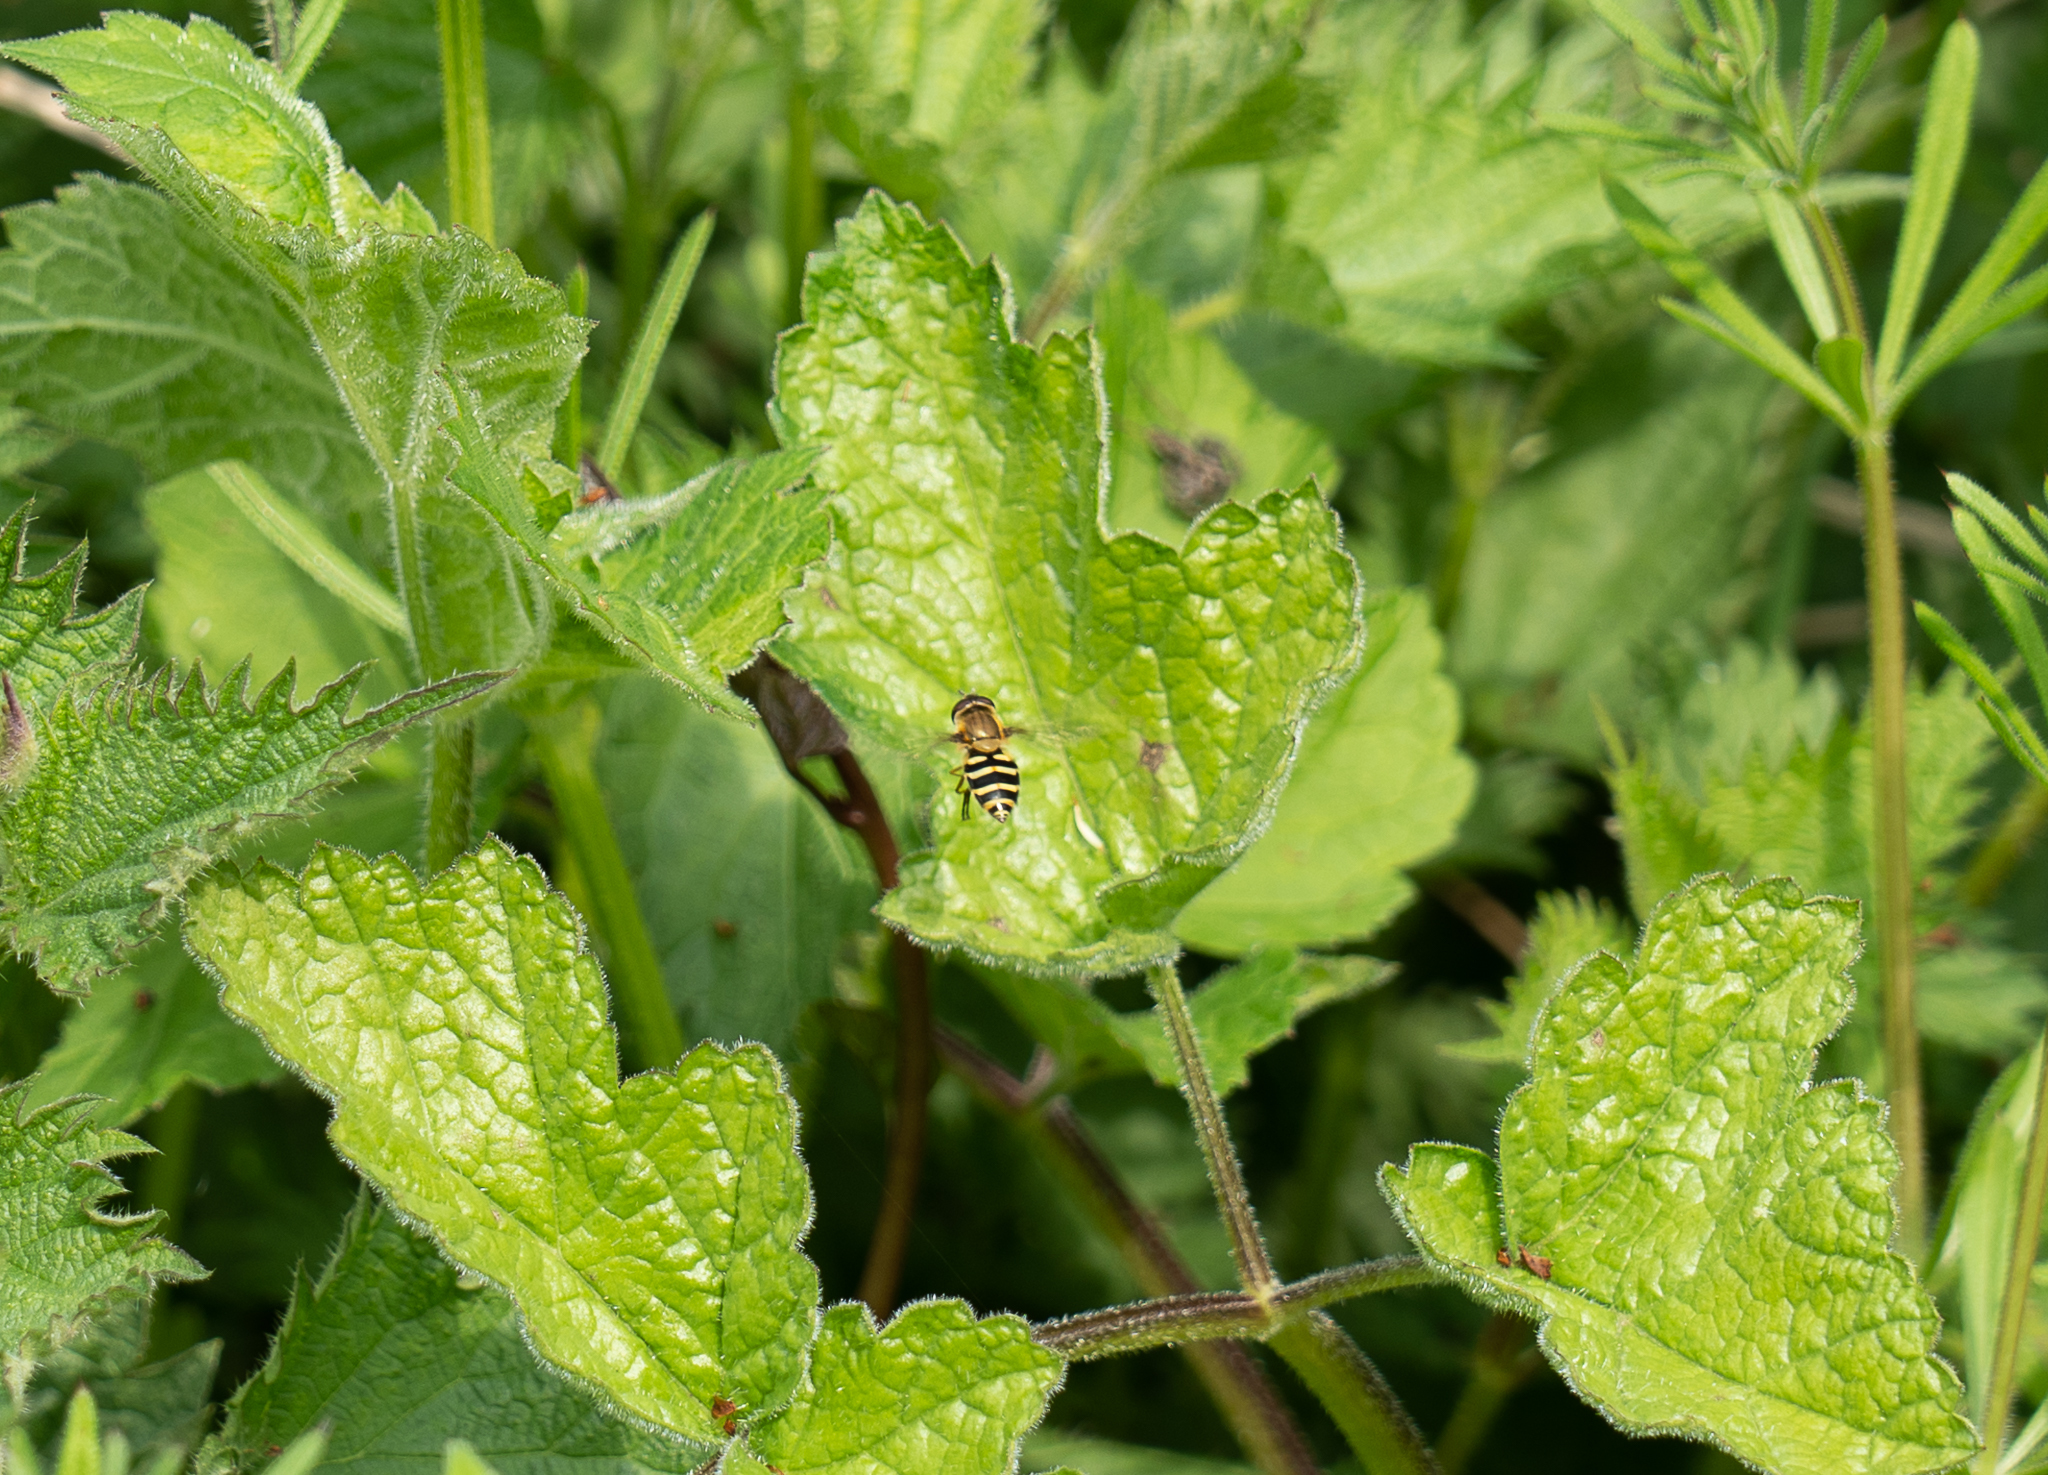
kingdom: Animalia
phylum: Arthropoda
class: Insecta
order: Diptera
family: Syrphidae
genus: Syrphus
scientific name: Syrphus
